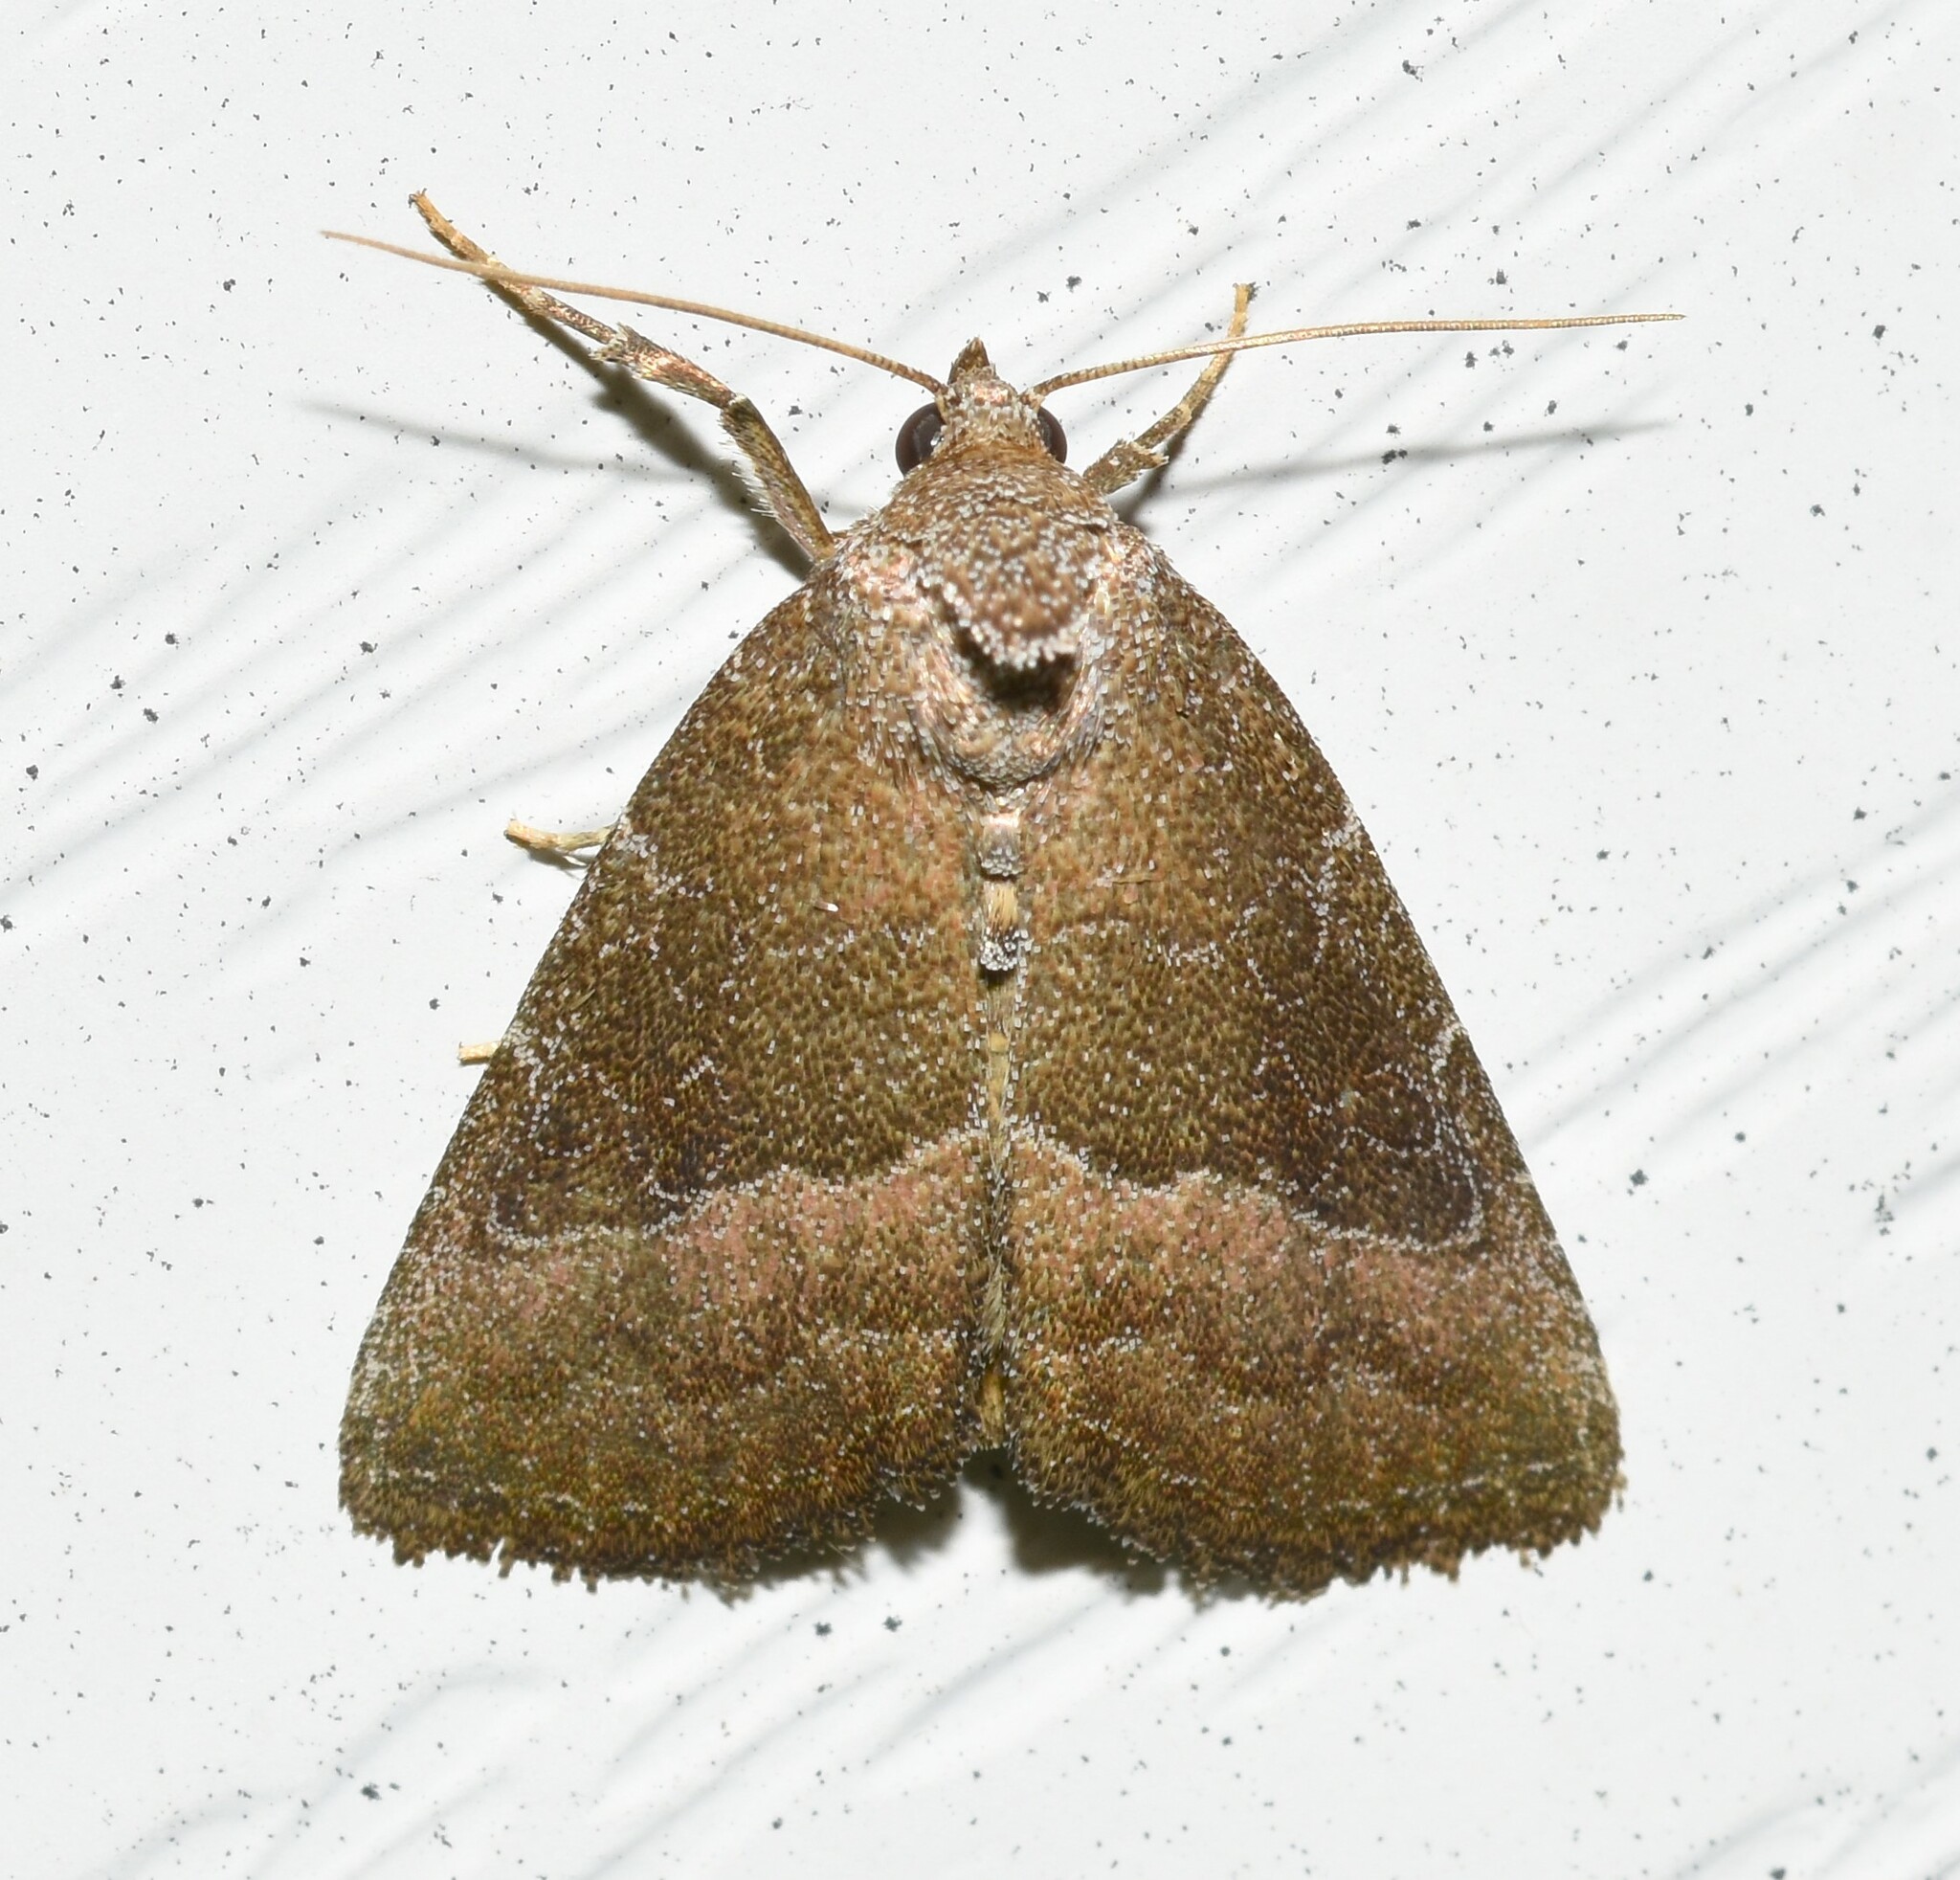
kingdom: Animalia
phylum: Arthropoda
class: Insecta
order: Lepidoptera
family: Noctuidae
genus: Ogdoconta
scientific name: Ogdoconta cinereola
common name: Common pinkband
